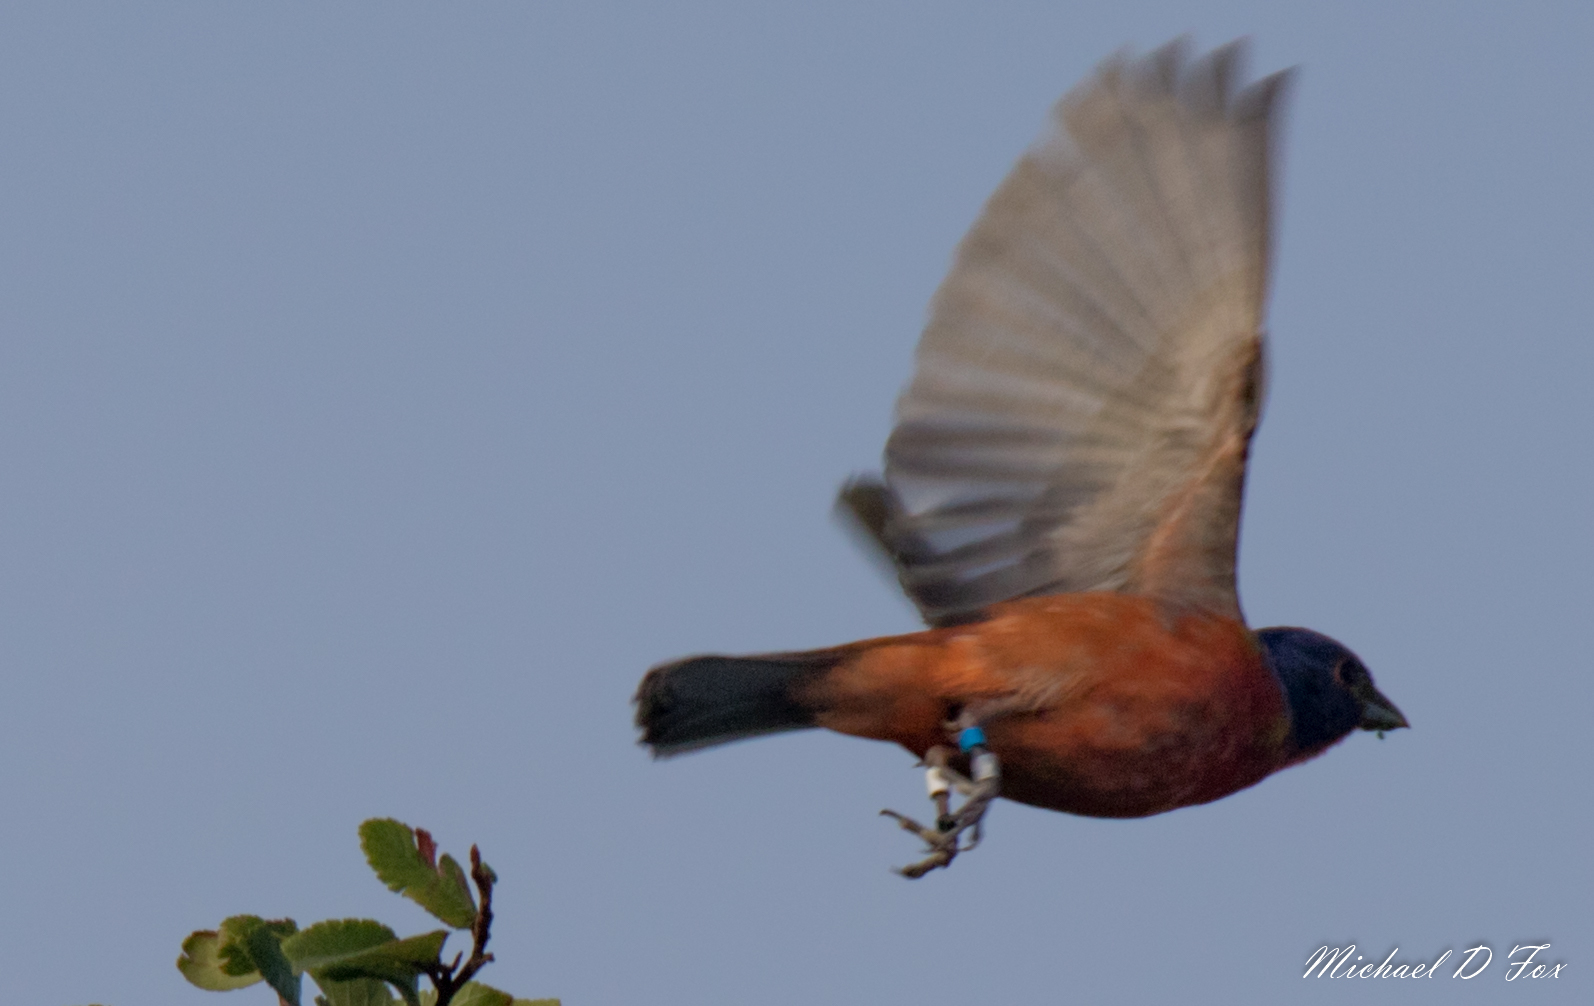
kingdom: Animalia
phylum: Chordata
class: Aves
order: Passeriformes
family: Cardinalidae
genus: Passerina
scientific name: Passerina ciris
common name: Painted bunting
